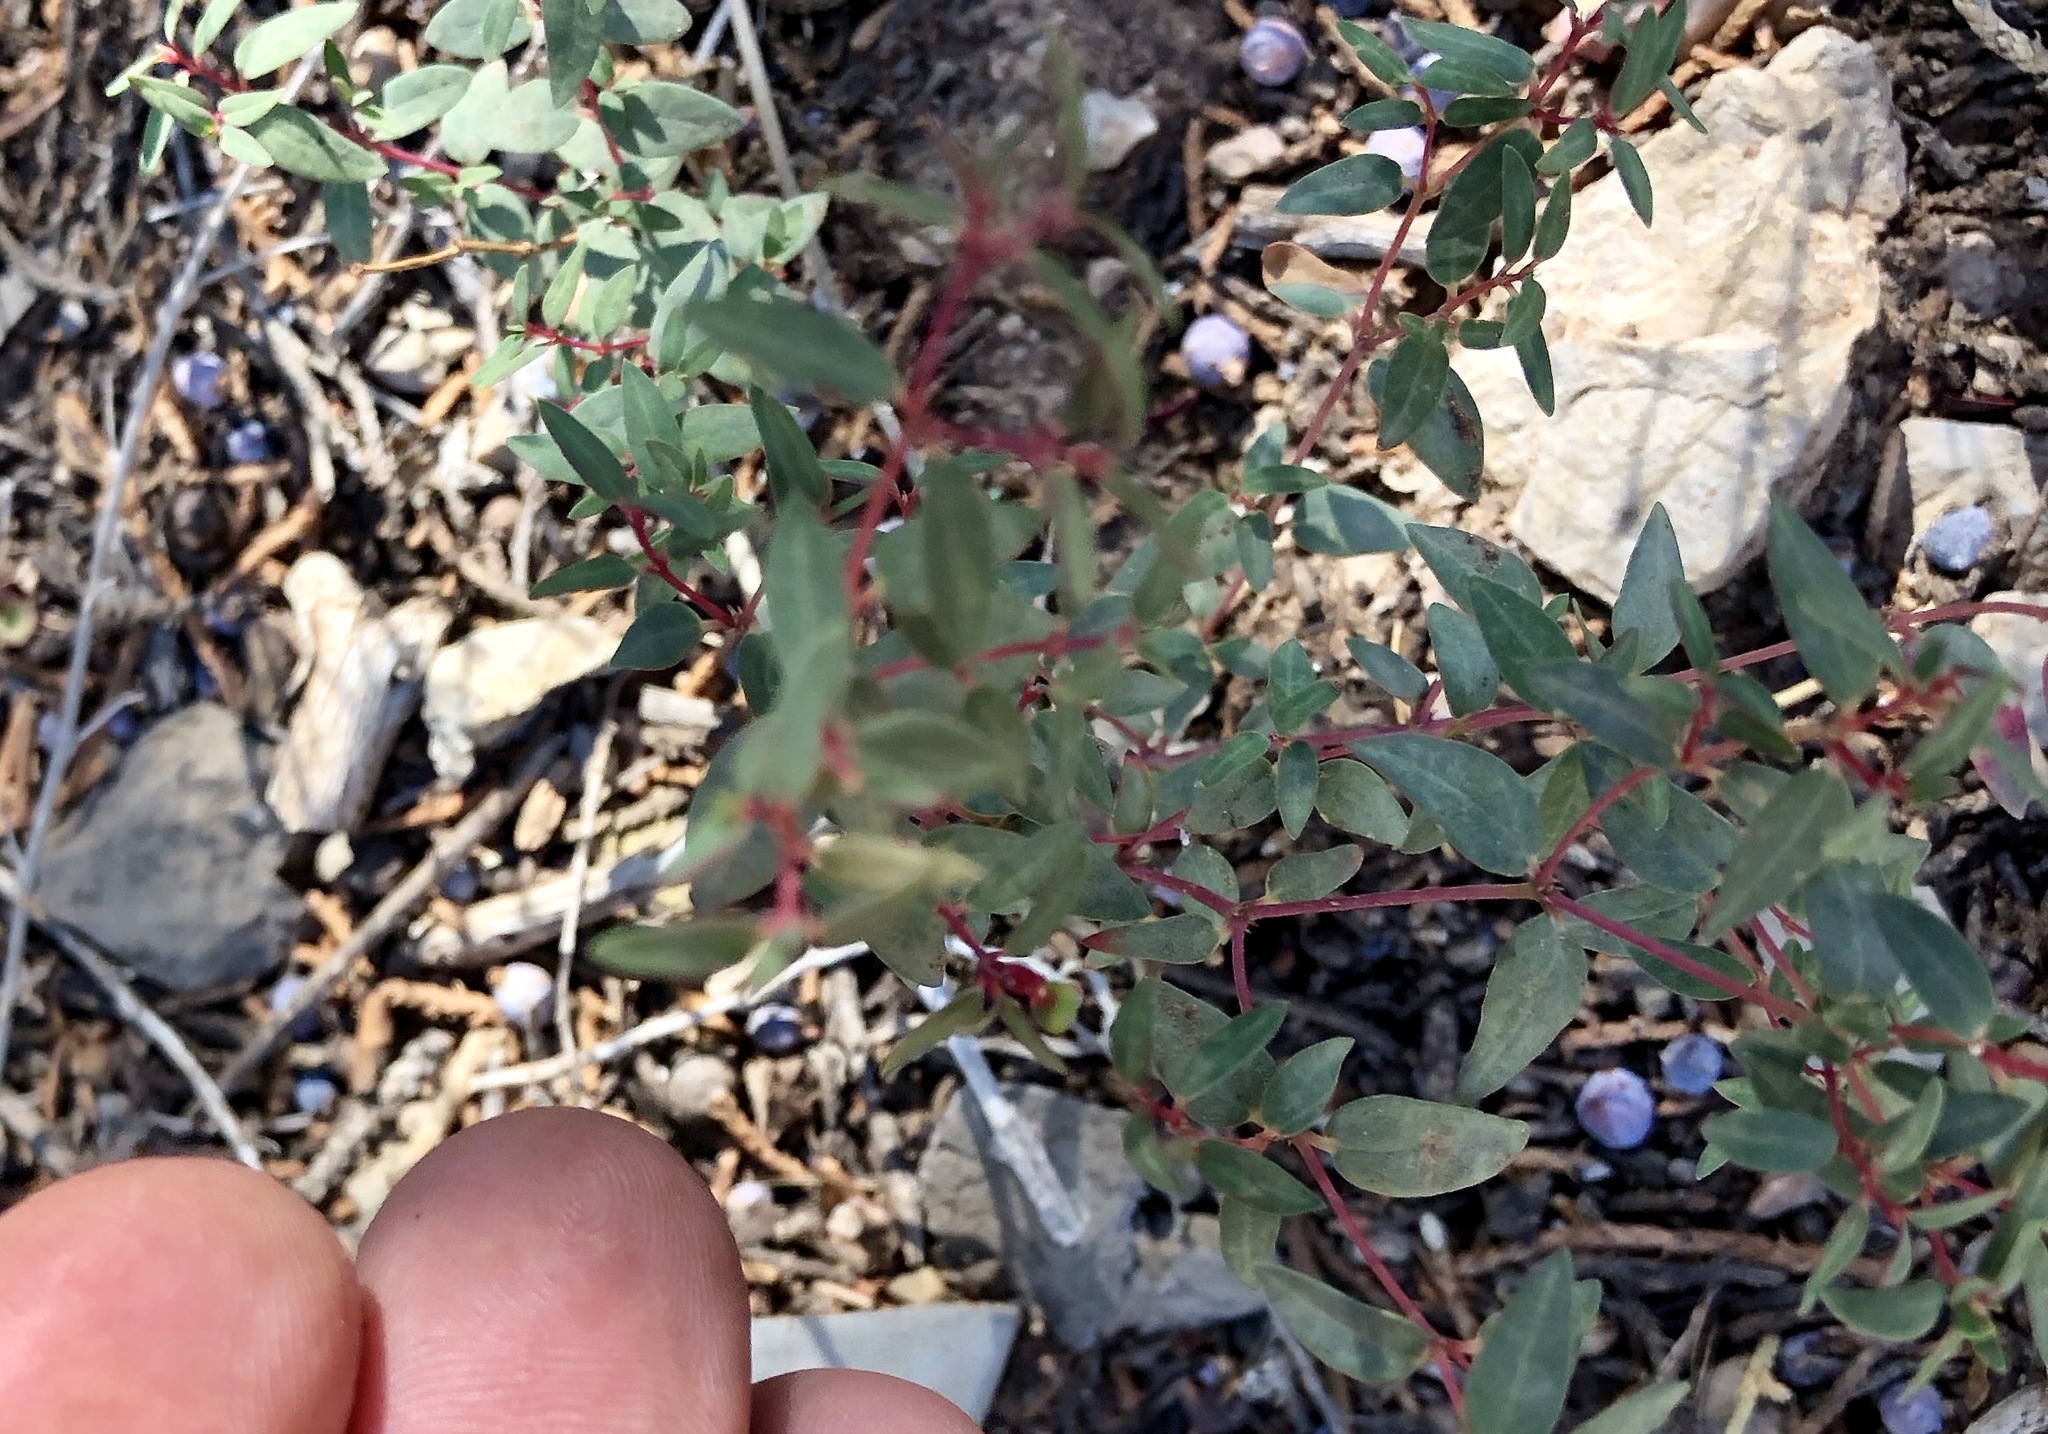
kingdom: Plantae
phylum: Tracheophyta
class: Magnoliopsida
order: Malpighiales
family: Euphorbiaceae
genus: Euphorbia
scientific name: Euphorbia chaetocalyx
